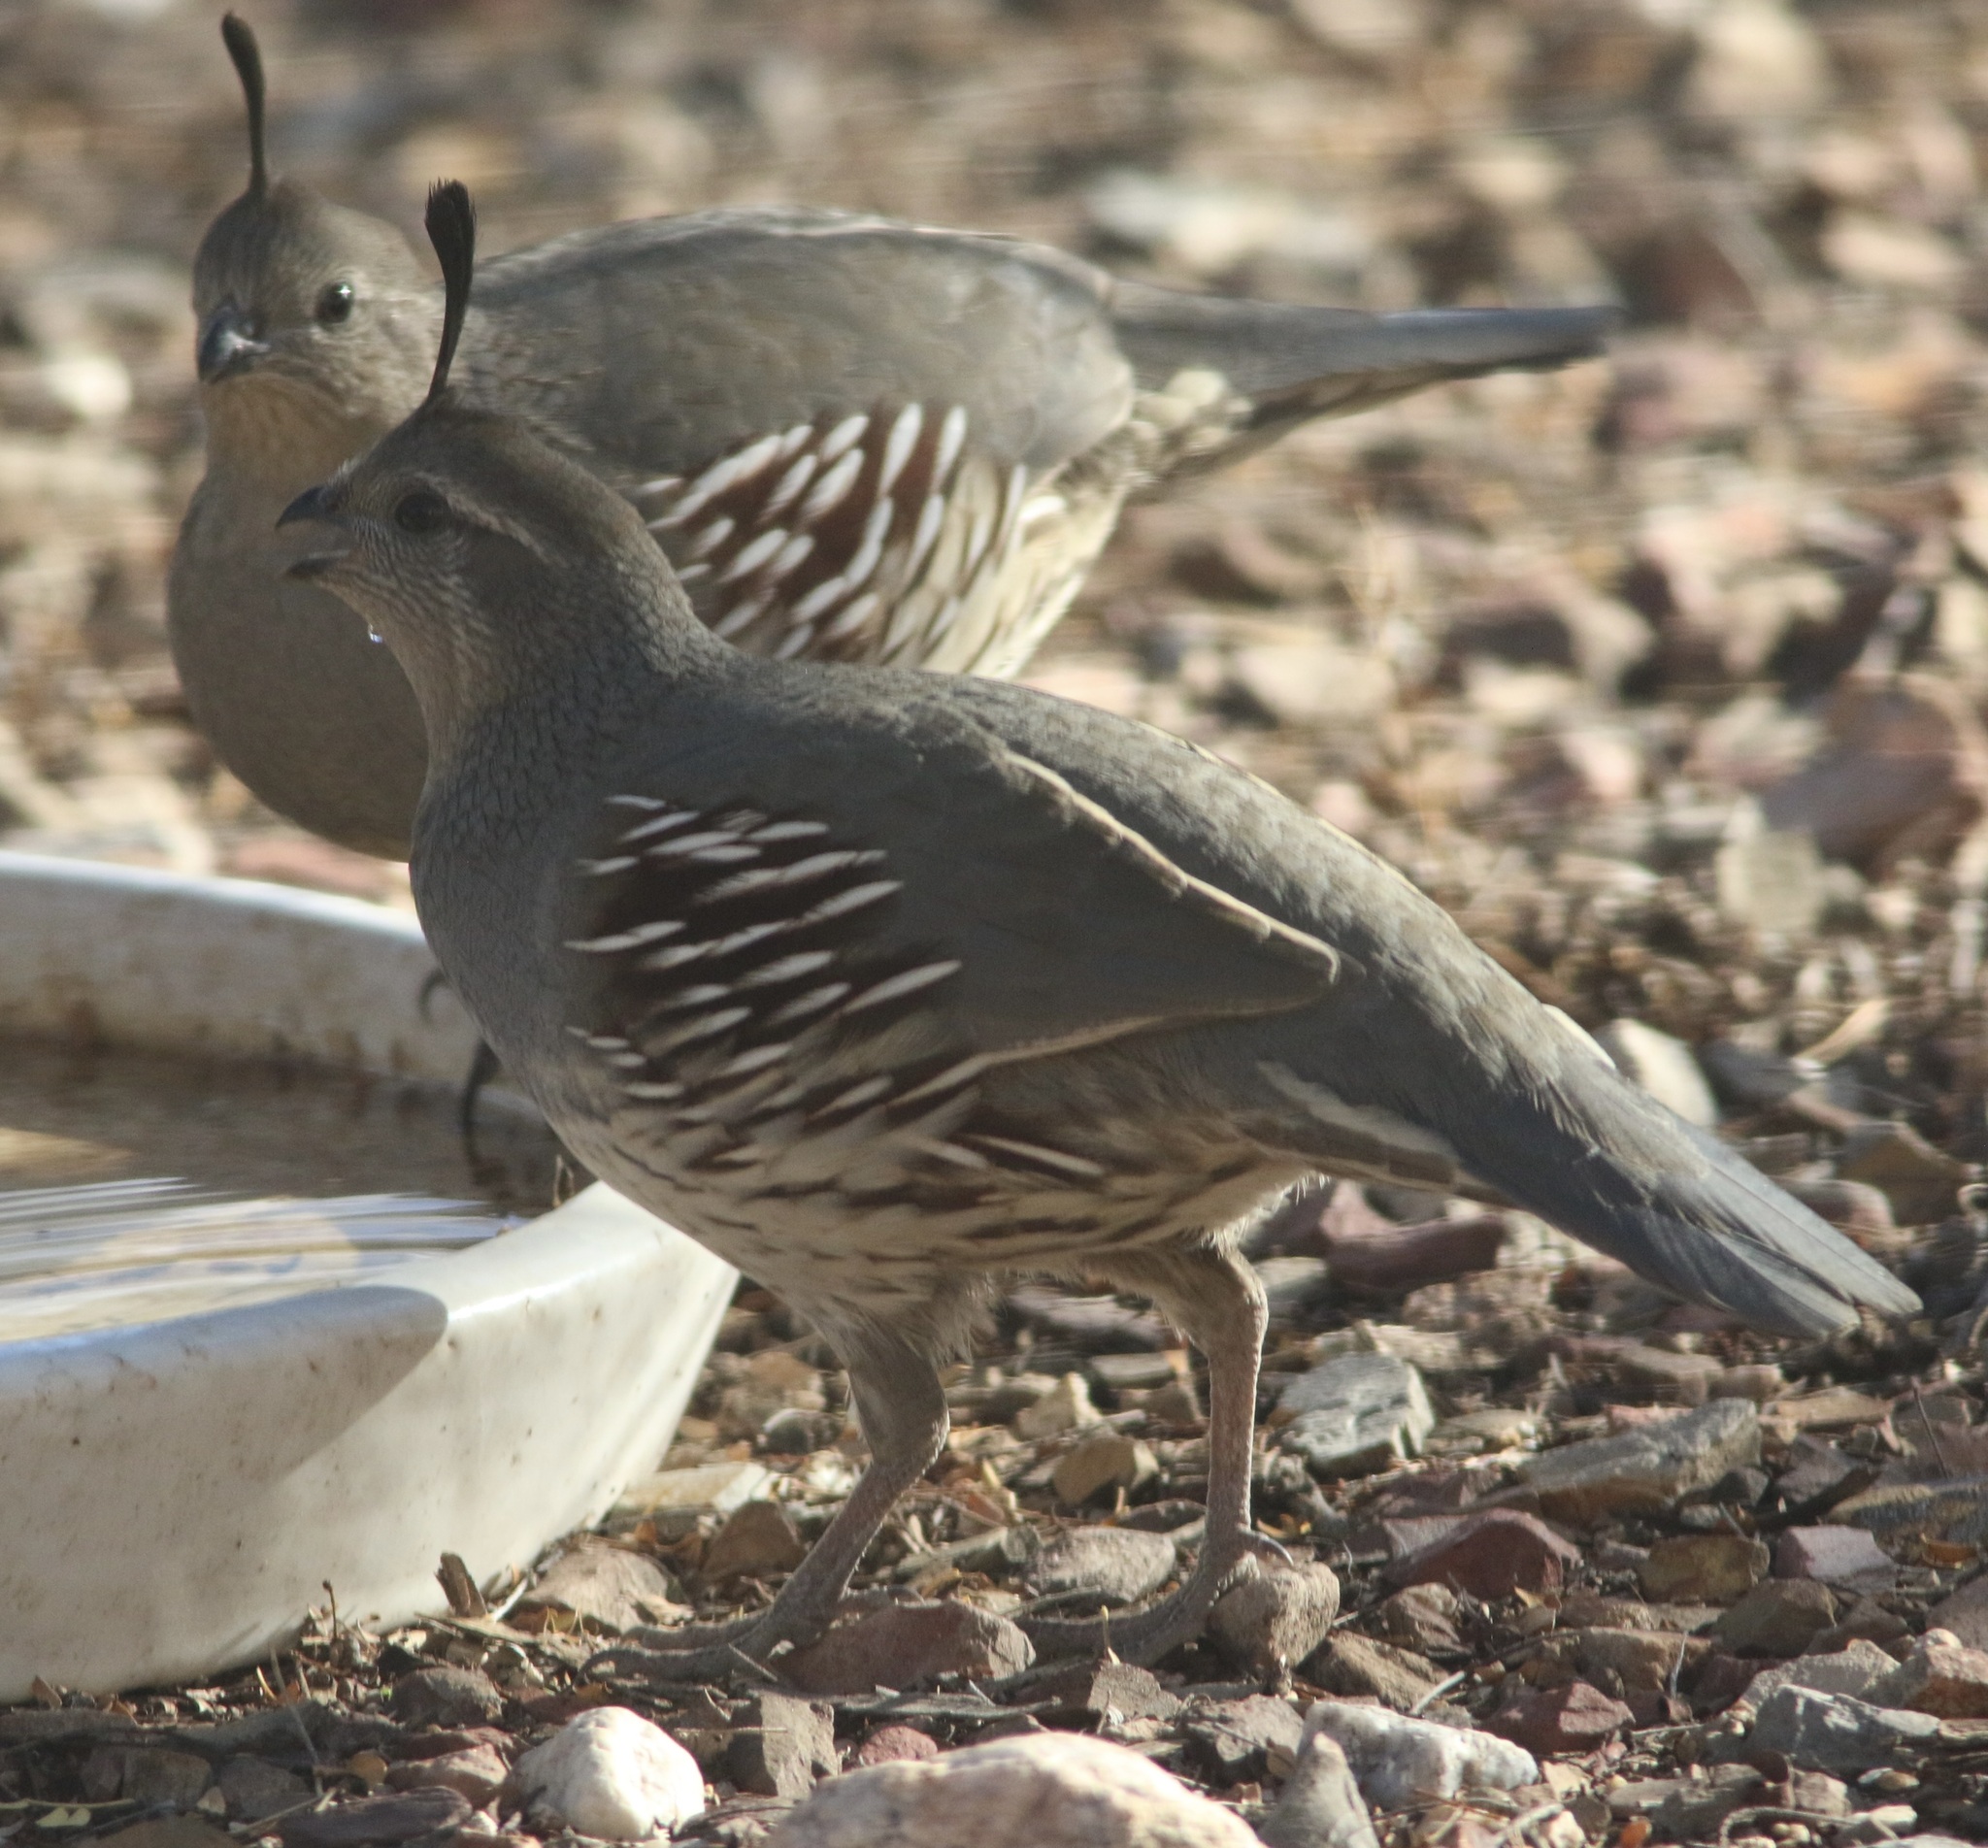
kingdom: Animalia
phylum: Chordata
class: Aves
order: Galliformes
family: Odontophoridae
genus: Callipepla
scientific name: Callipepla gambelii
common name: Gambel's quail
